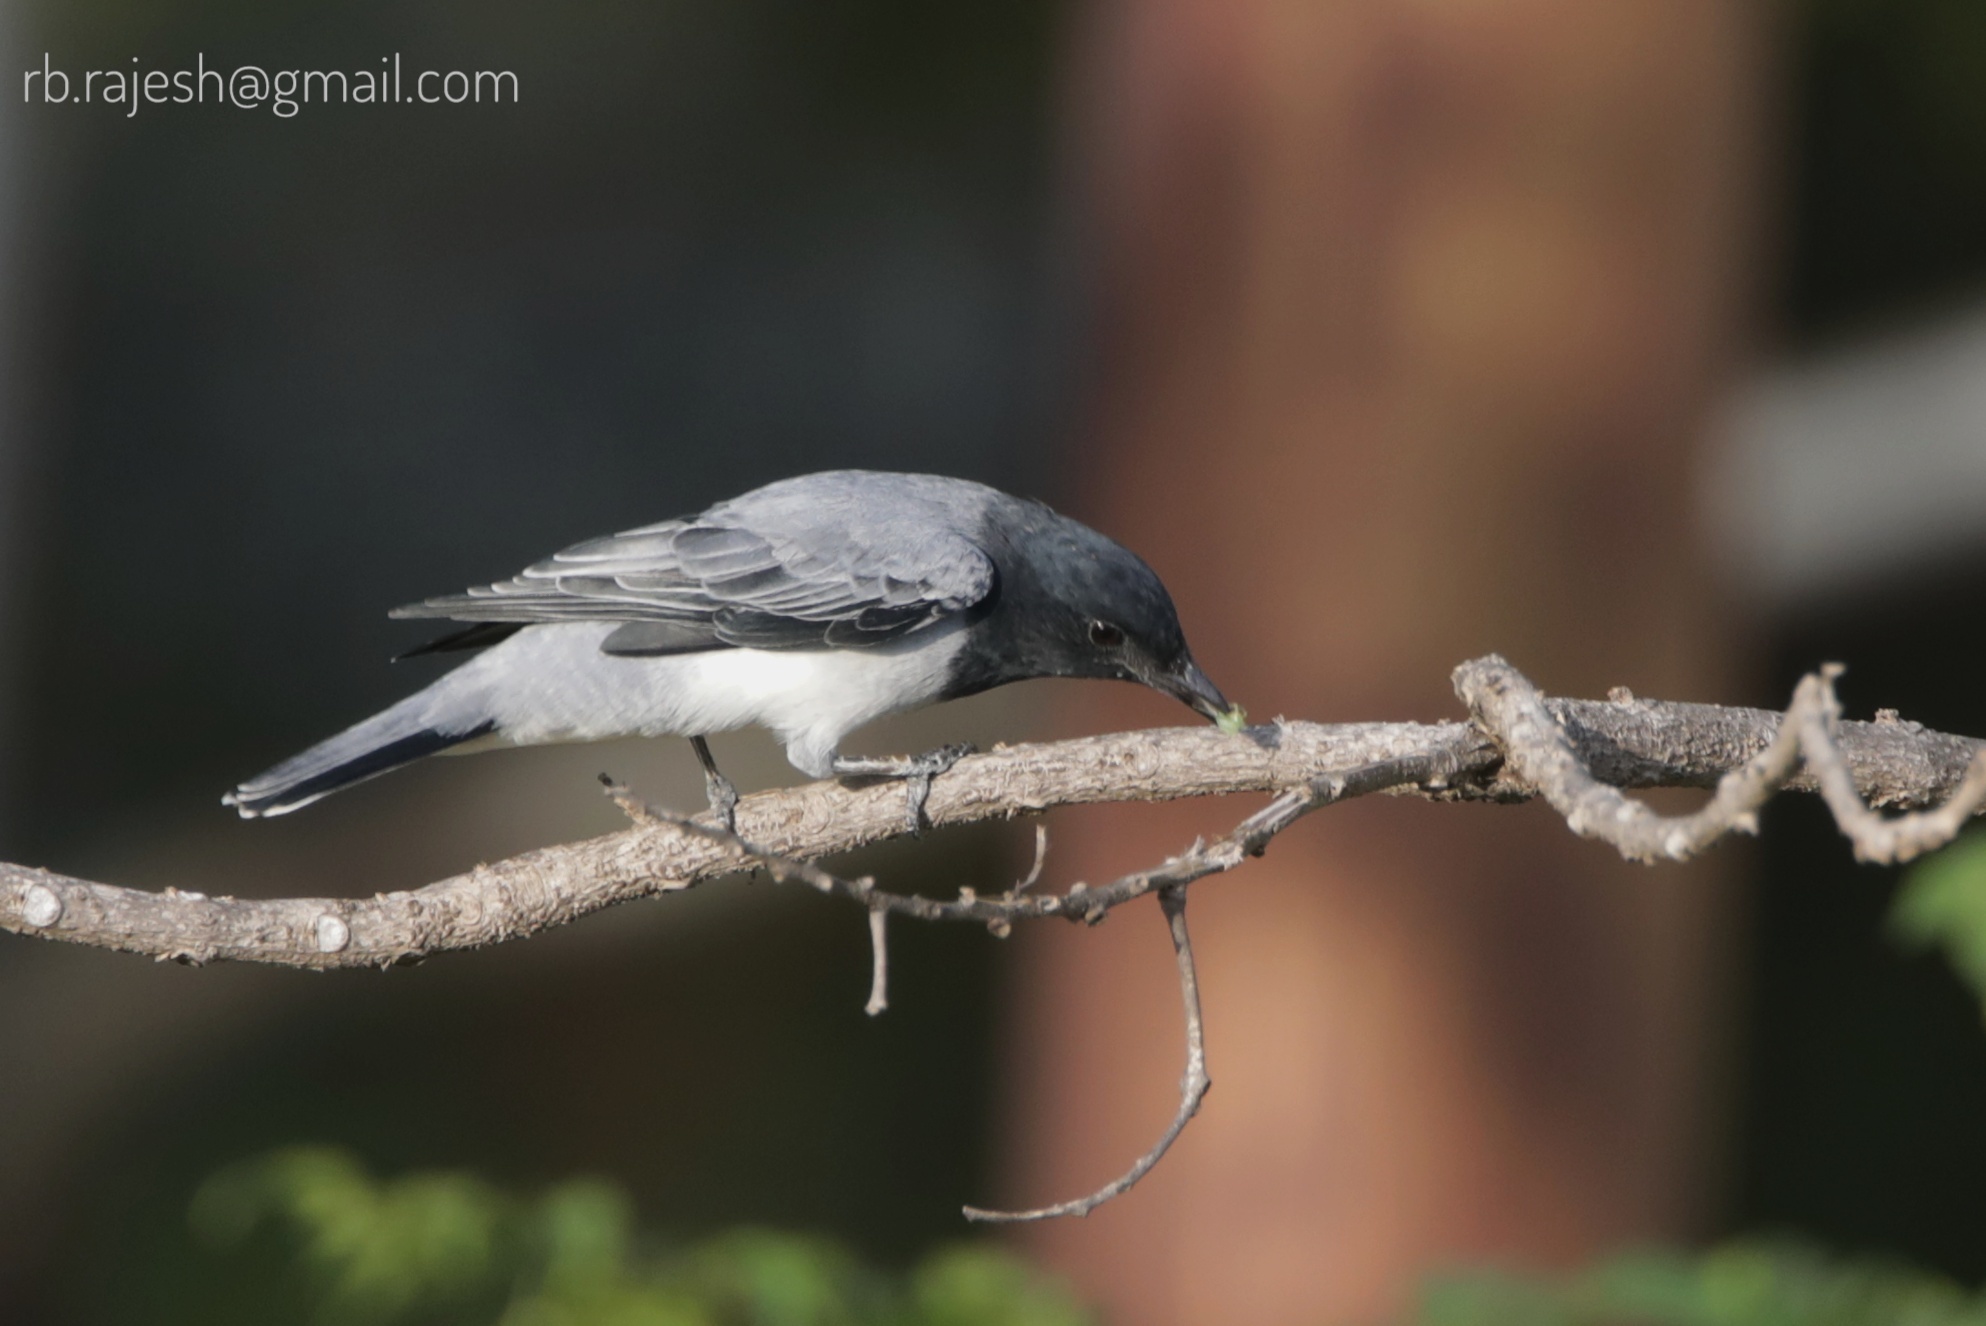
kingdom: Animalia
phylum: Chordata
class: Aves
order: Passeriformes
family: Campephagidae
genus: Coracina
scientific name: Coracina melanoptera
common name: Black-headed cuckooshrike
